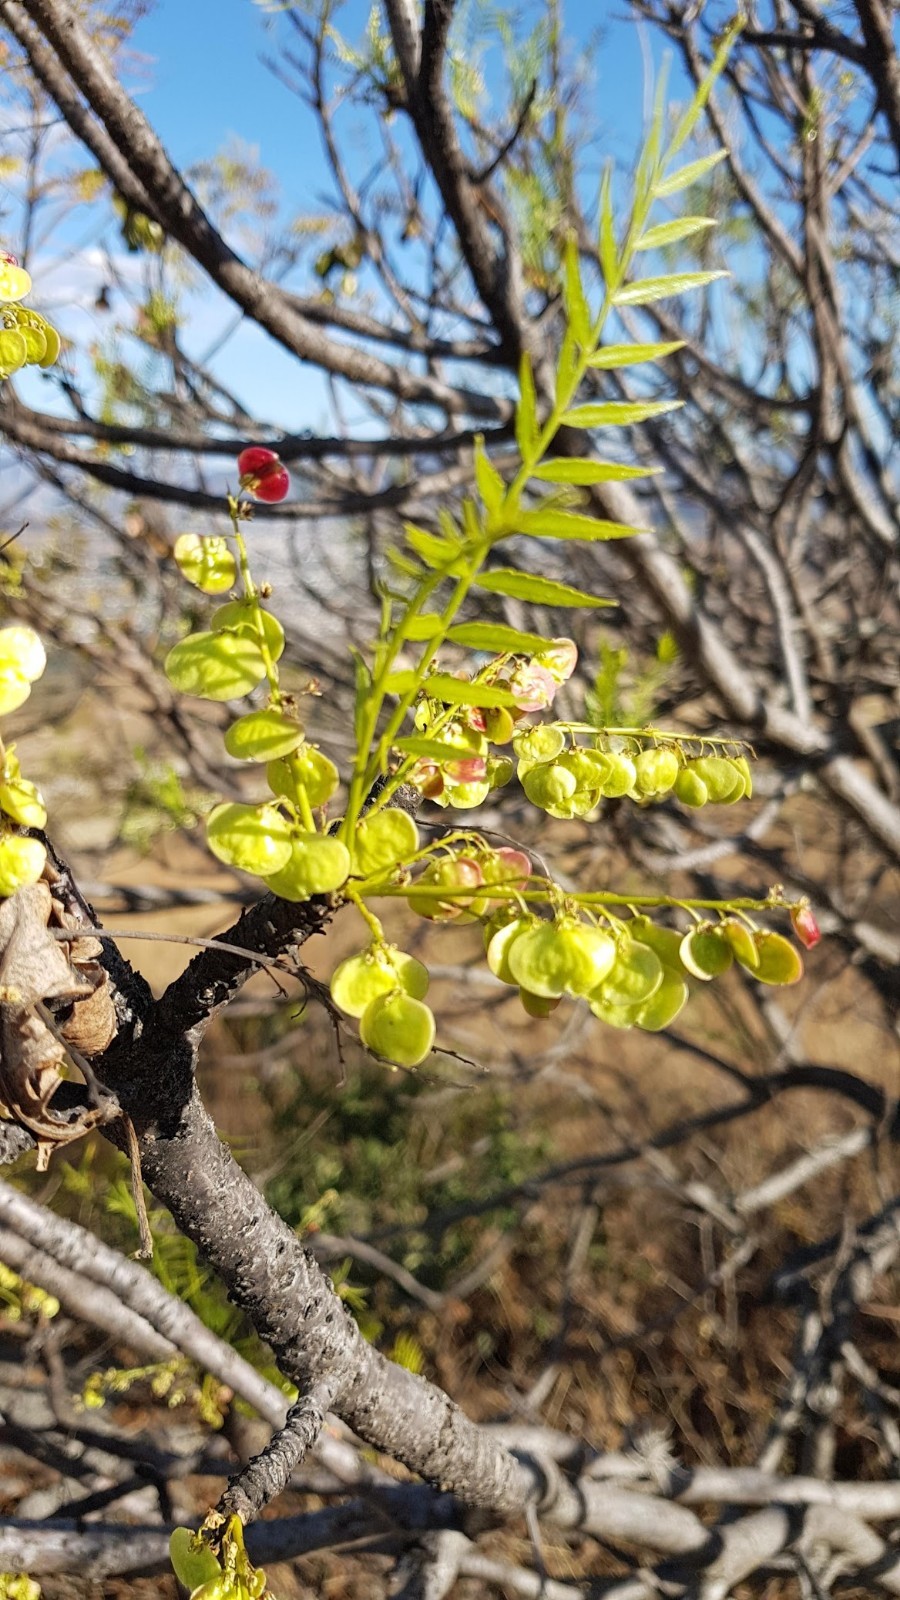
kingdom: Plantae
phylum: Tracheophyta
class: Magnoliopsida
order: Sapindales
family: Anacardiaceae
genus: Pseudosmodingium
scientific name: Pseudosmodingium andrieuxii
